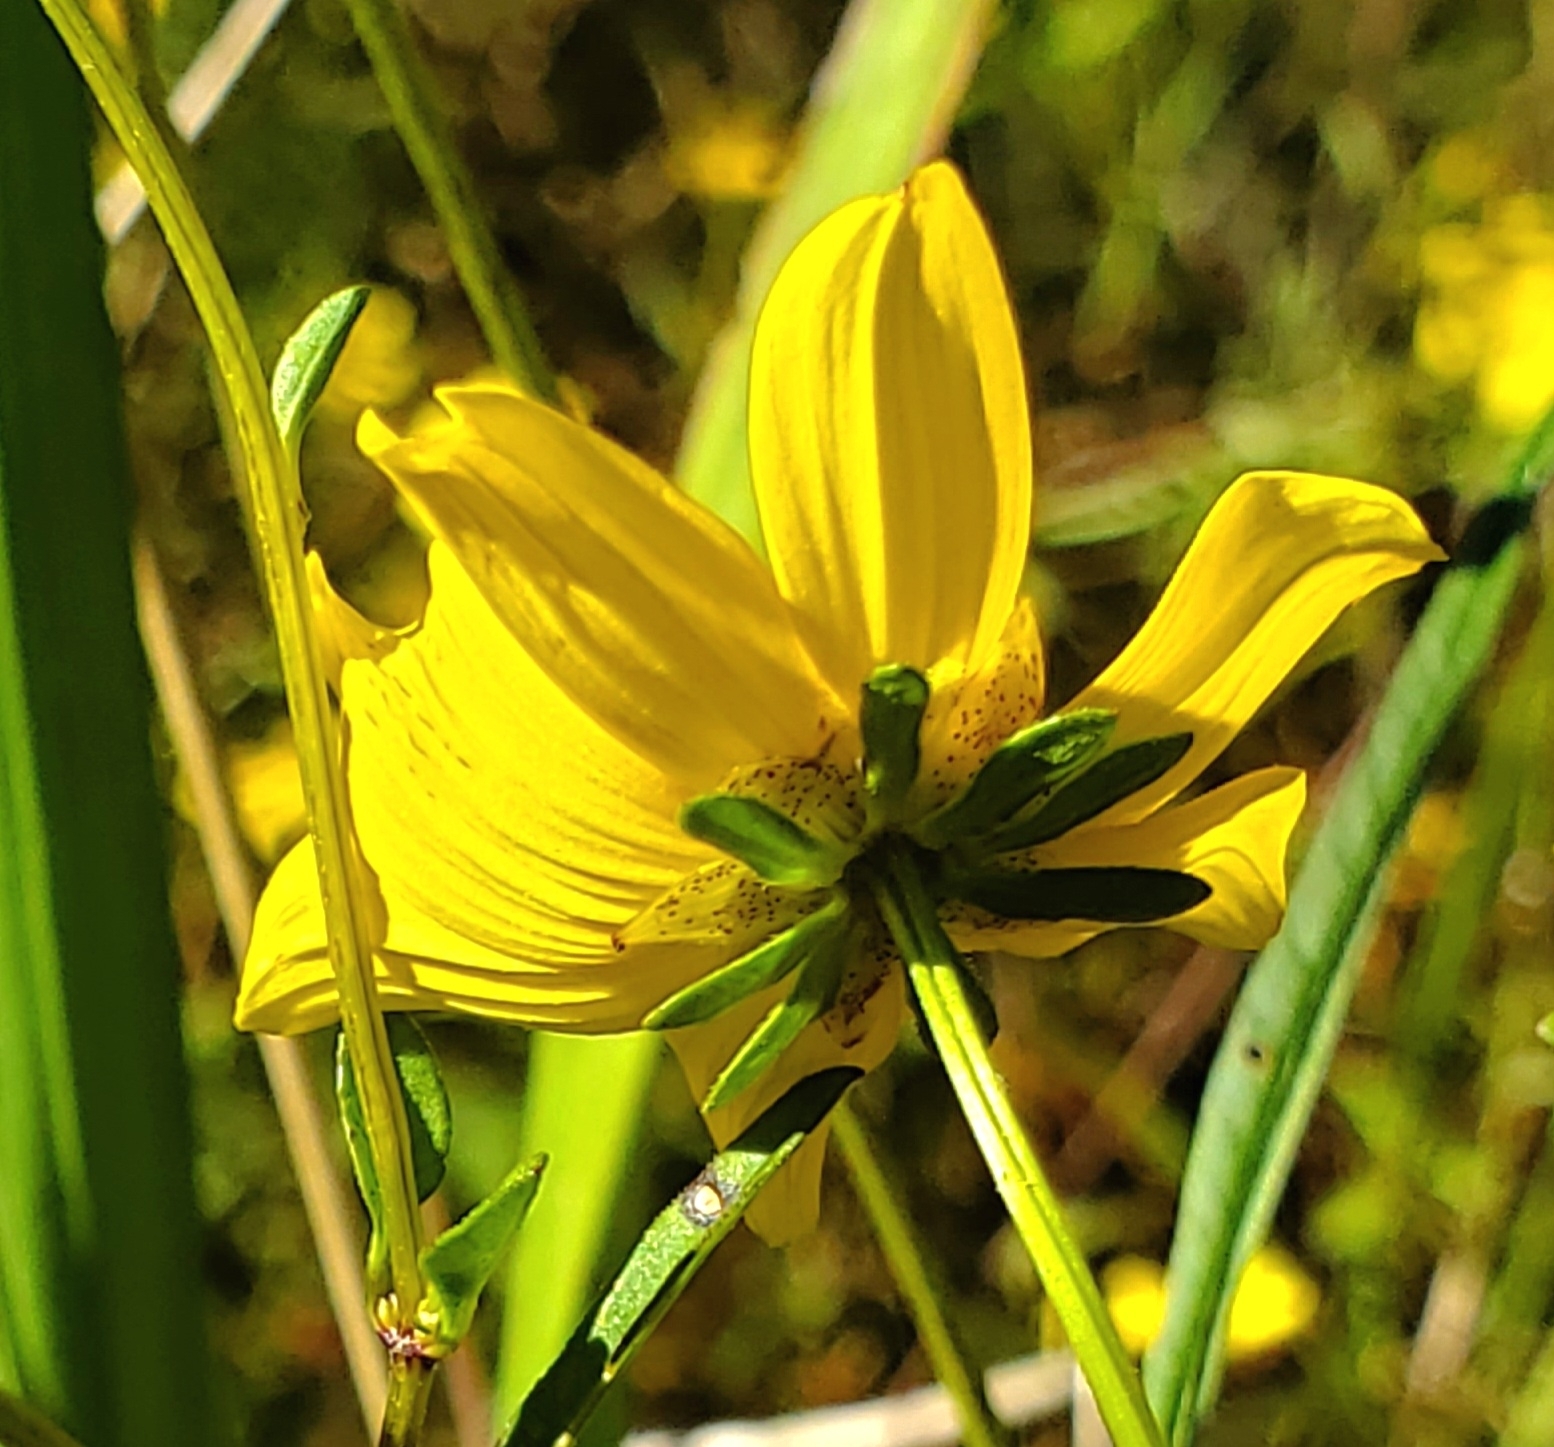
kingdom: Plantae
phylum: Tracheophyta
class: Magnoliopsida
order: Asterales
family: Asteraceae
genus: Bidens
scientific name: Bidens mitis
